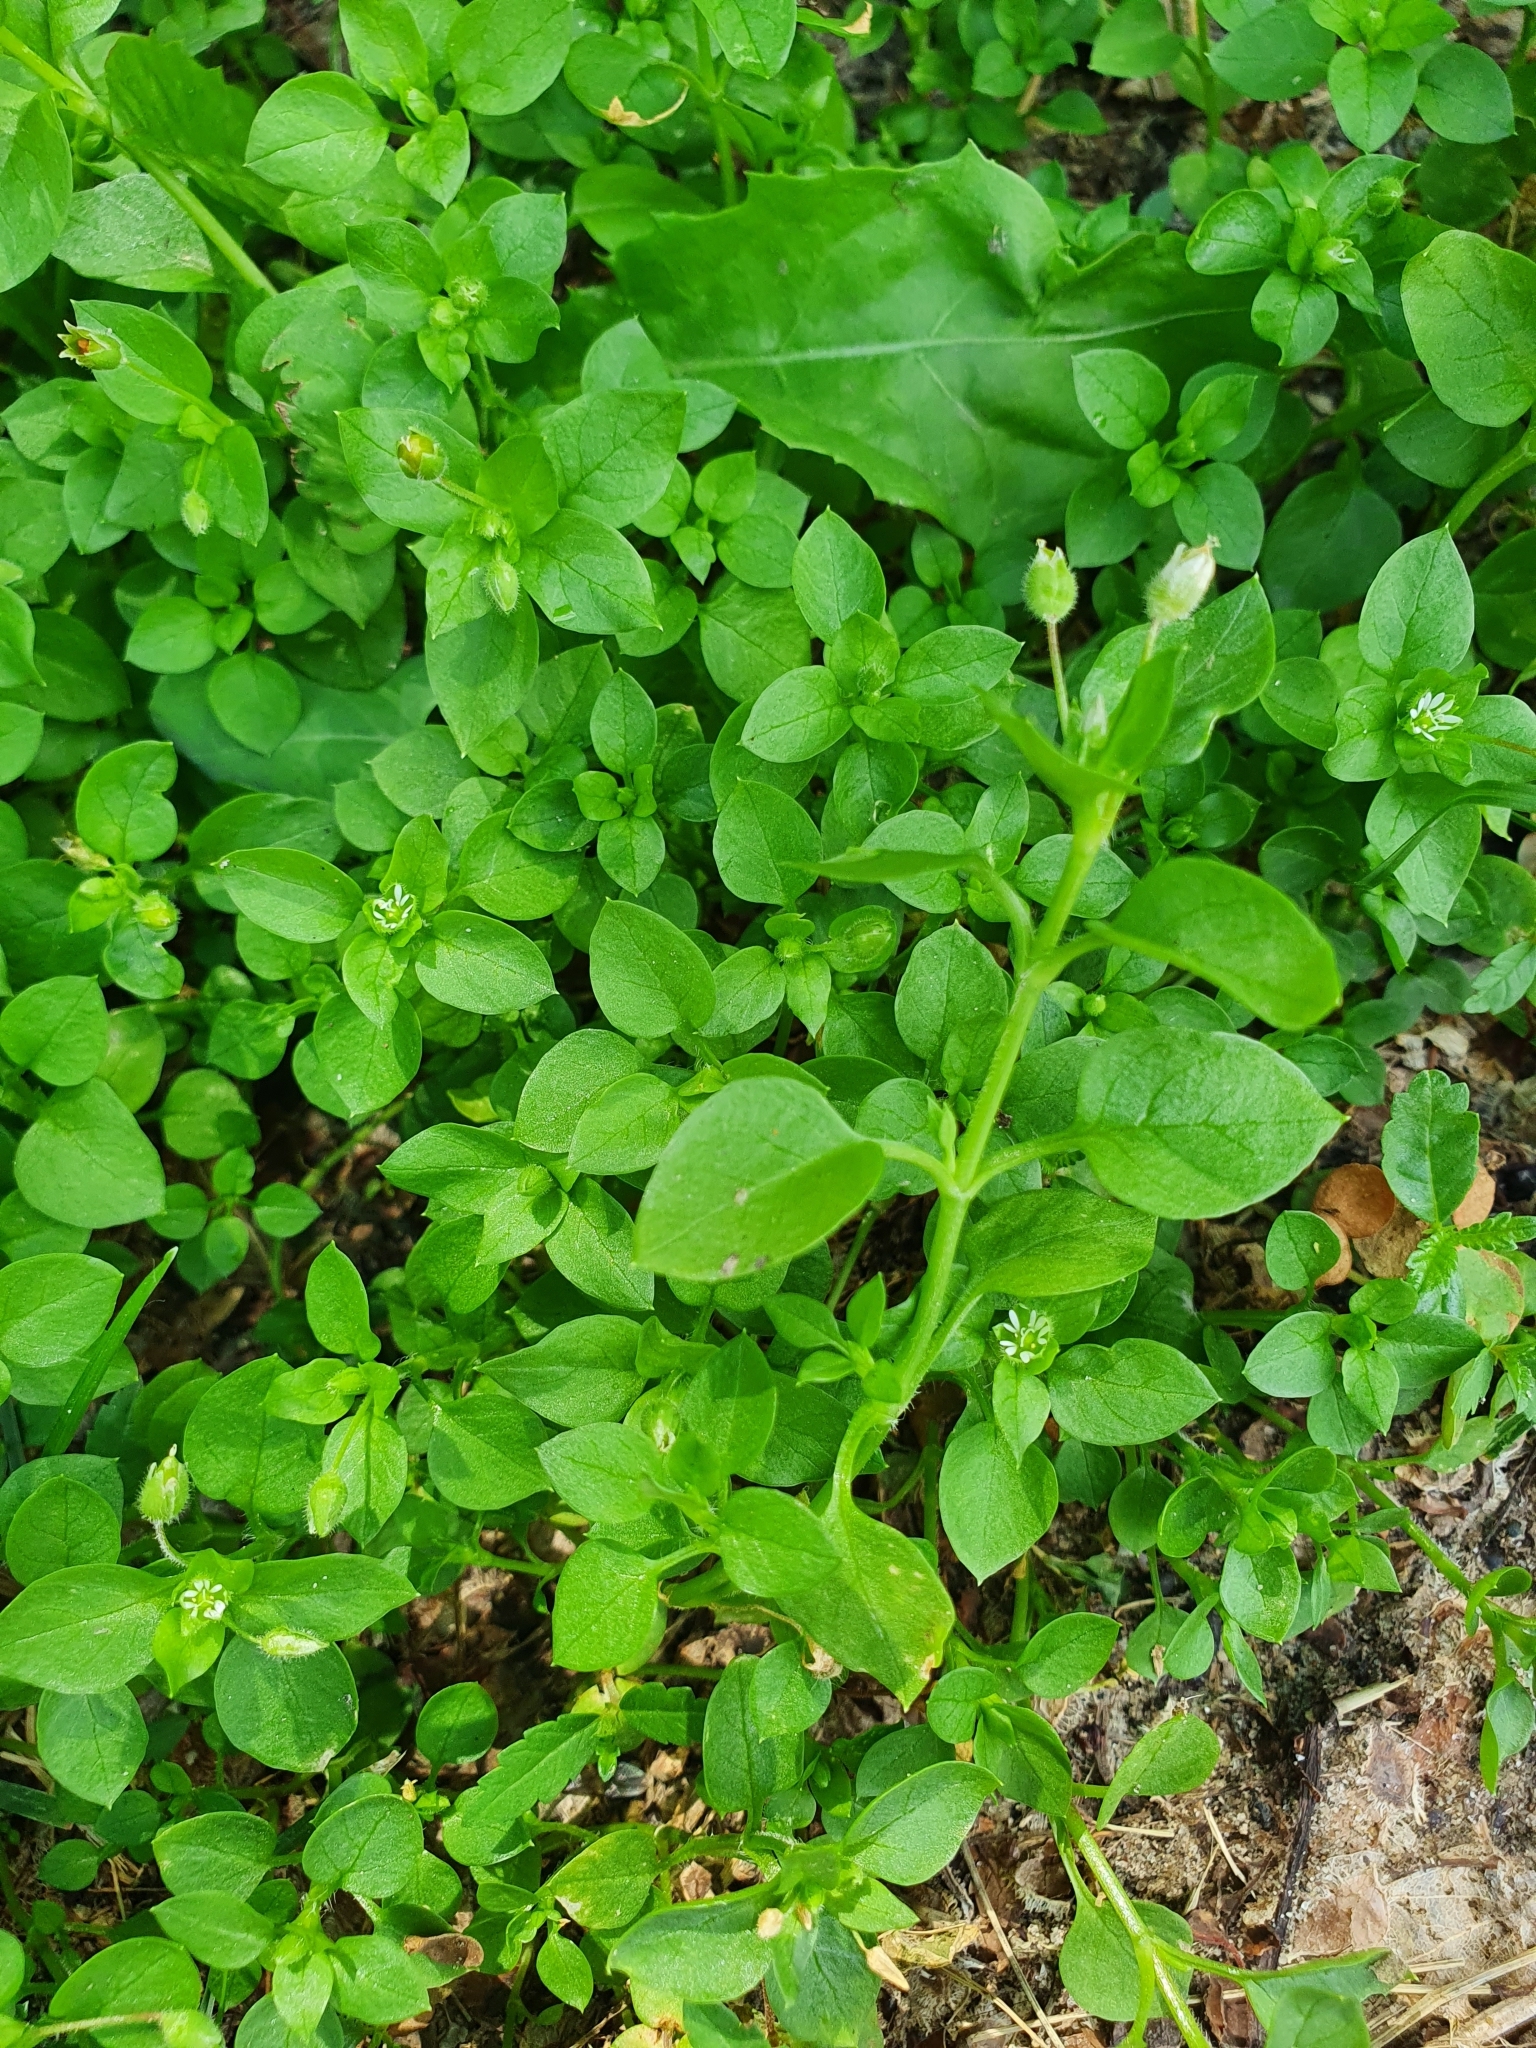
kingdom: Plantae
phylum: Tracheophyta
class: Magnoliopsida
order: Caryophyllales
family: Caryophyllaceae
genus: Stellaria
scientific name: Stellaria media
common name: Common chickweed
